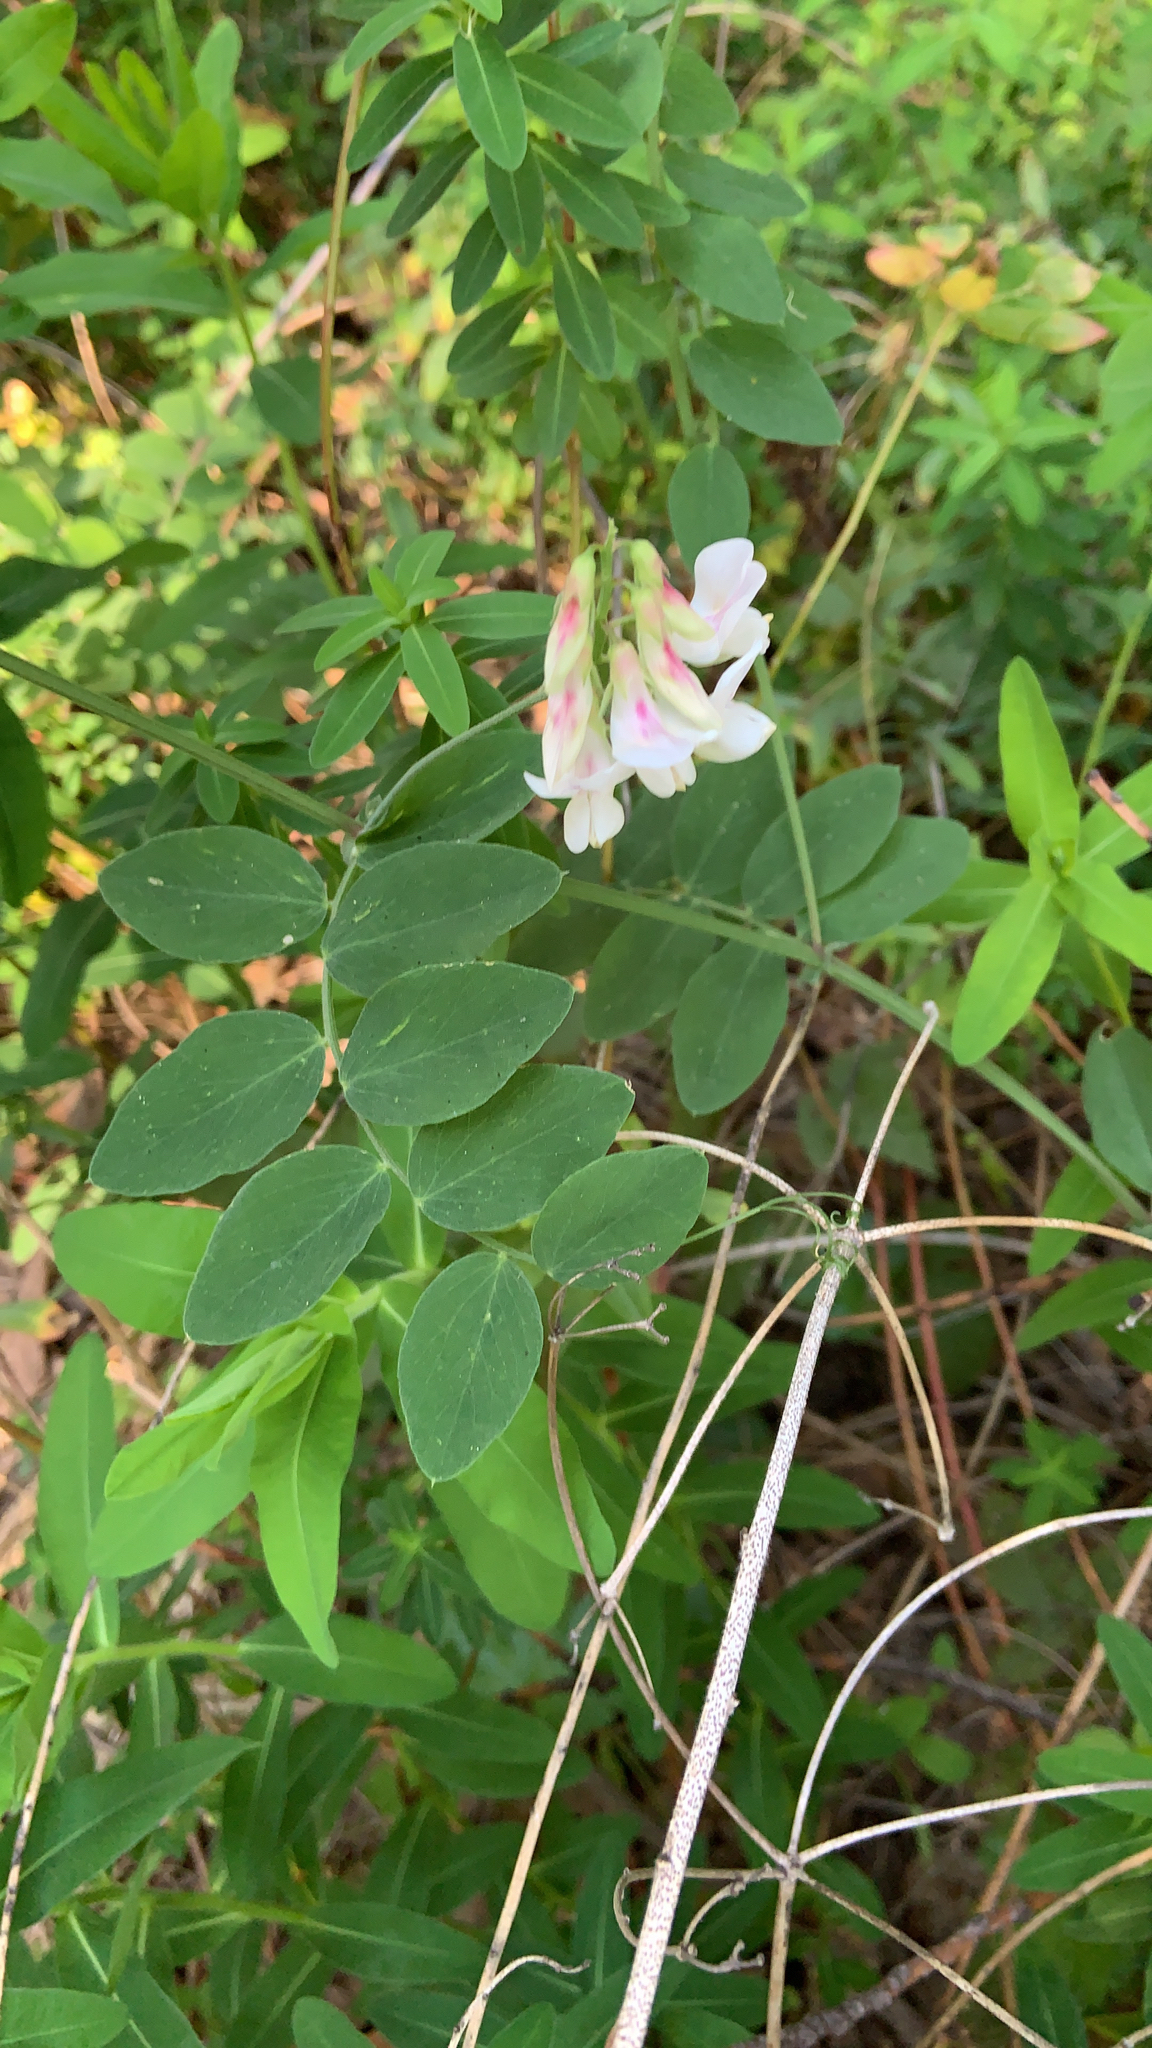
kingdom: Plantae
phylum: Tracheophyta
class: Magnoliopsida
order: Fabales
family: Fabaceae
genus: Lathyrus
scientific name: Lathyrus vestitus
